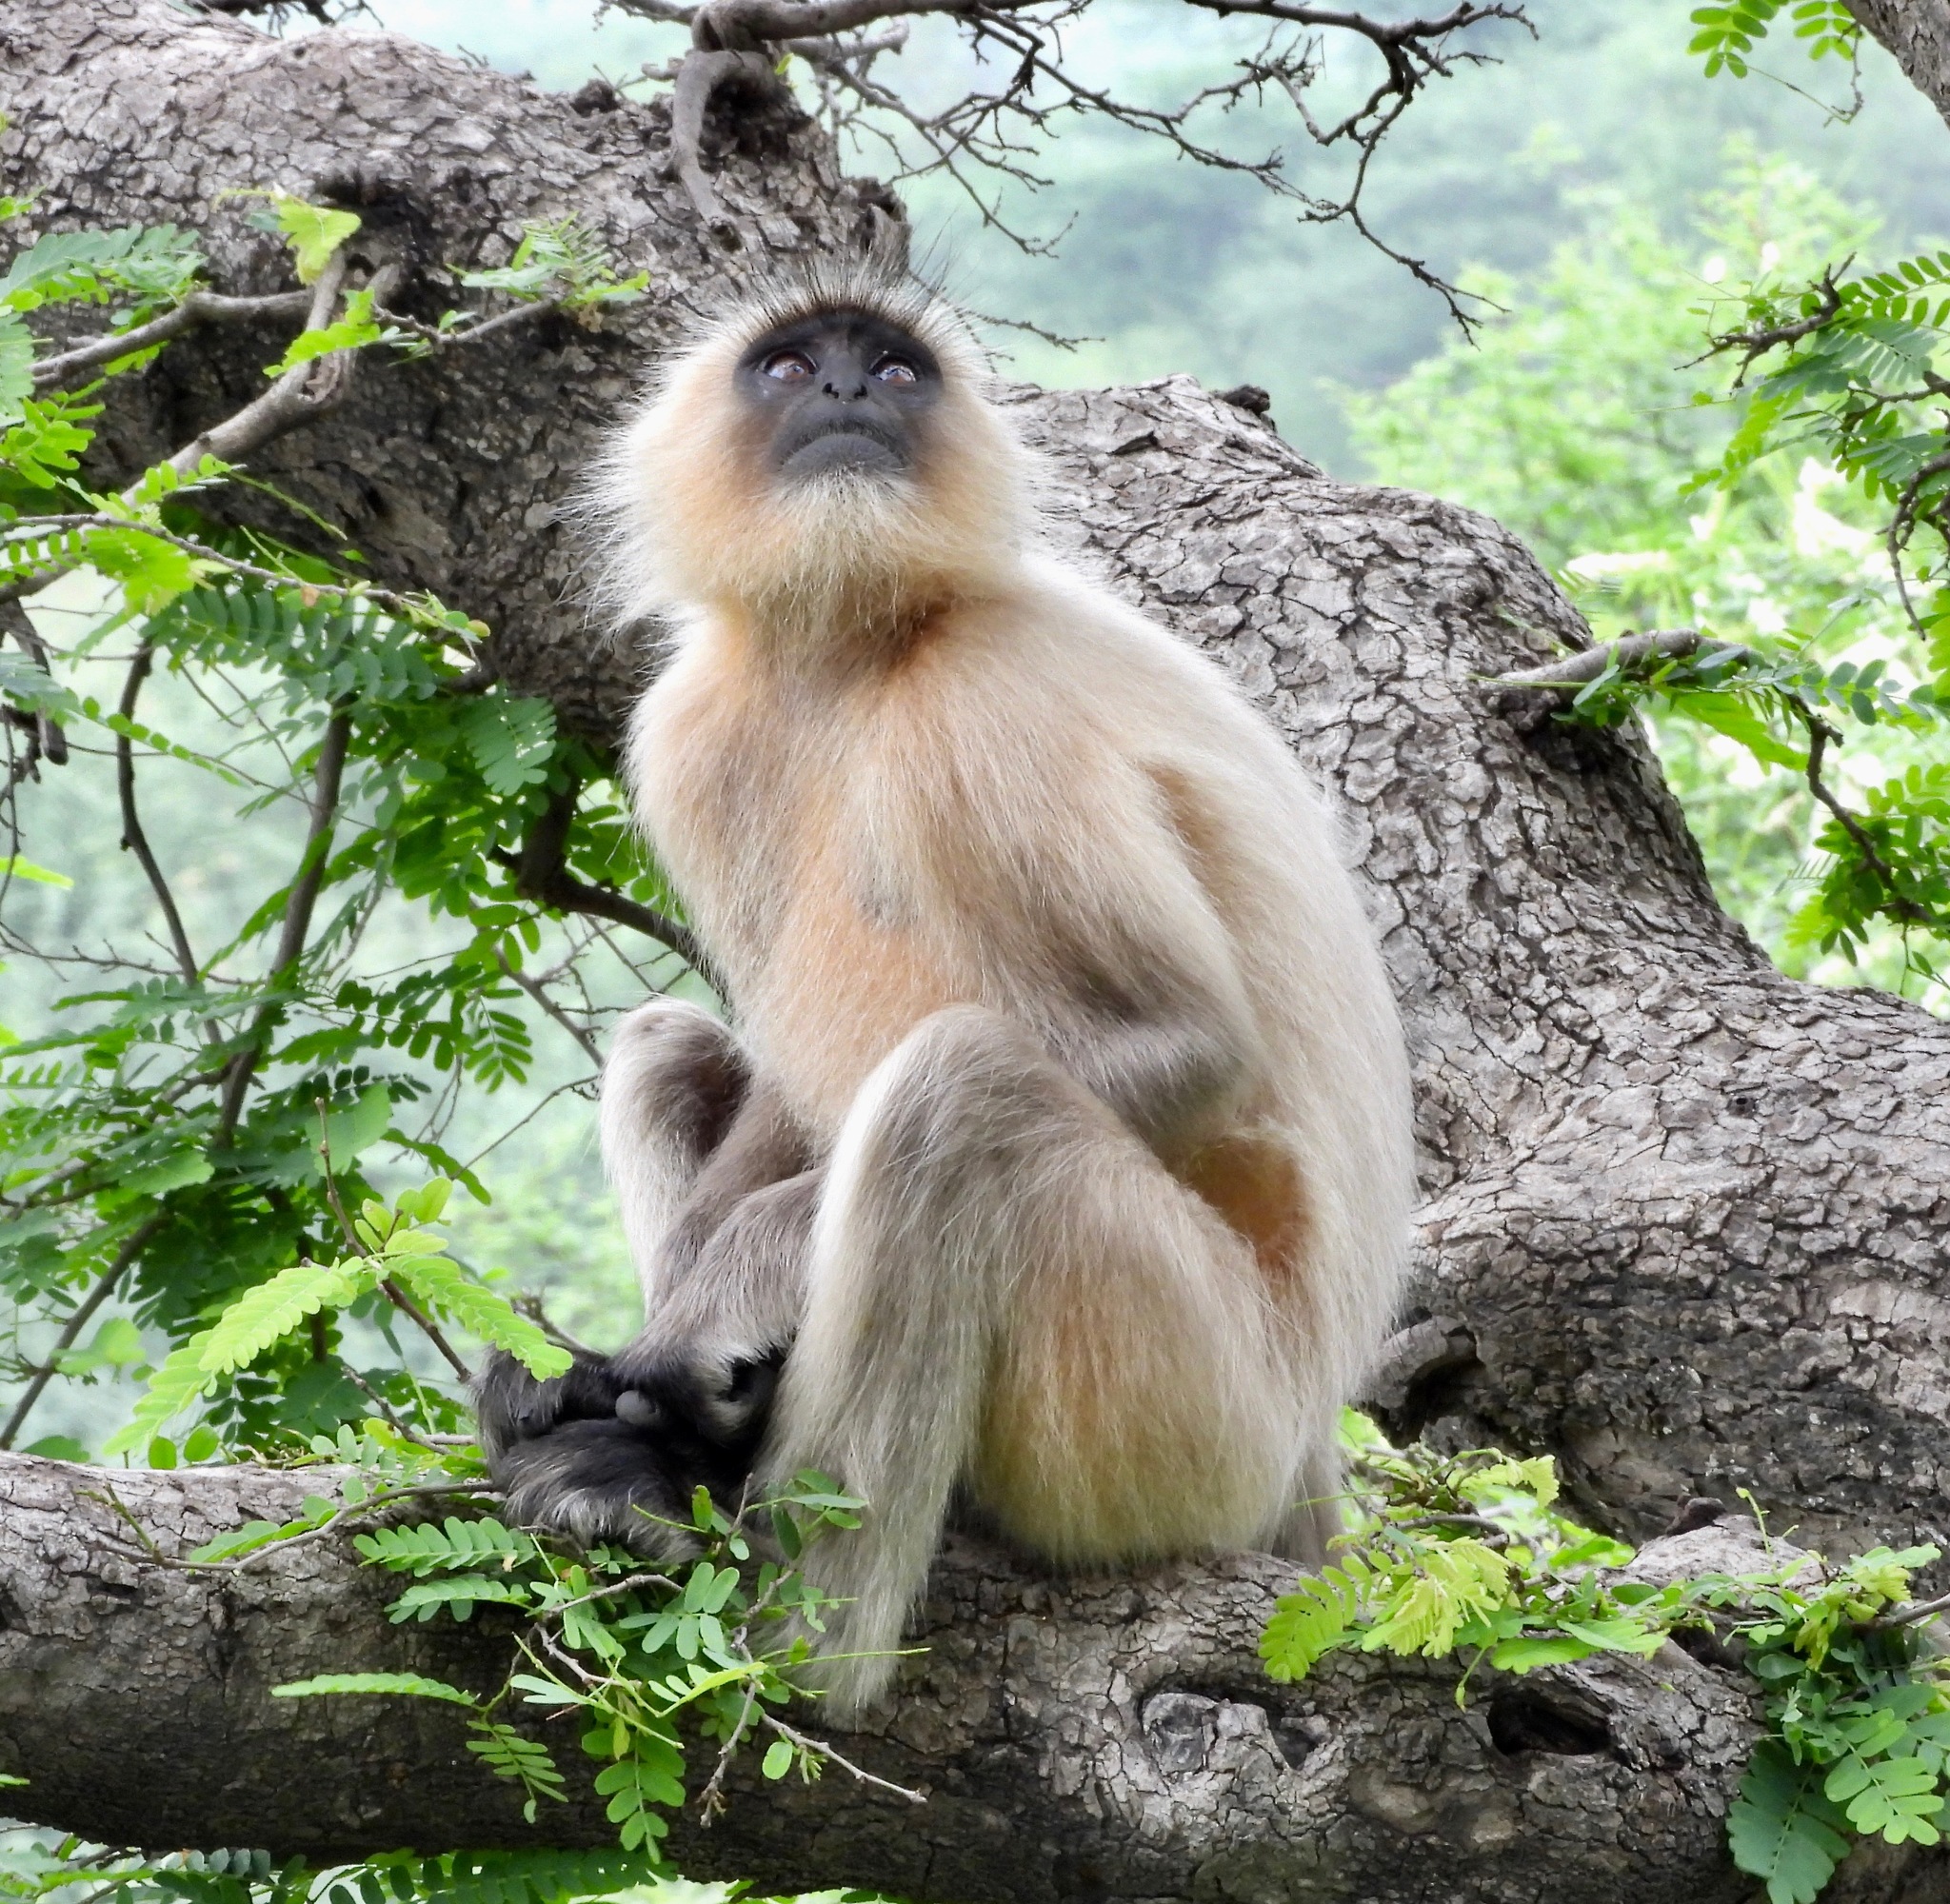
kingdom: Animalia
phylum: Chordata
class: Mammalia
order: Primates
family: Cercopithecidae
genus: Semnopithecus
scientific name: Semnopithecus entellus
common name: Northern plains gray langur
